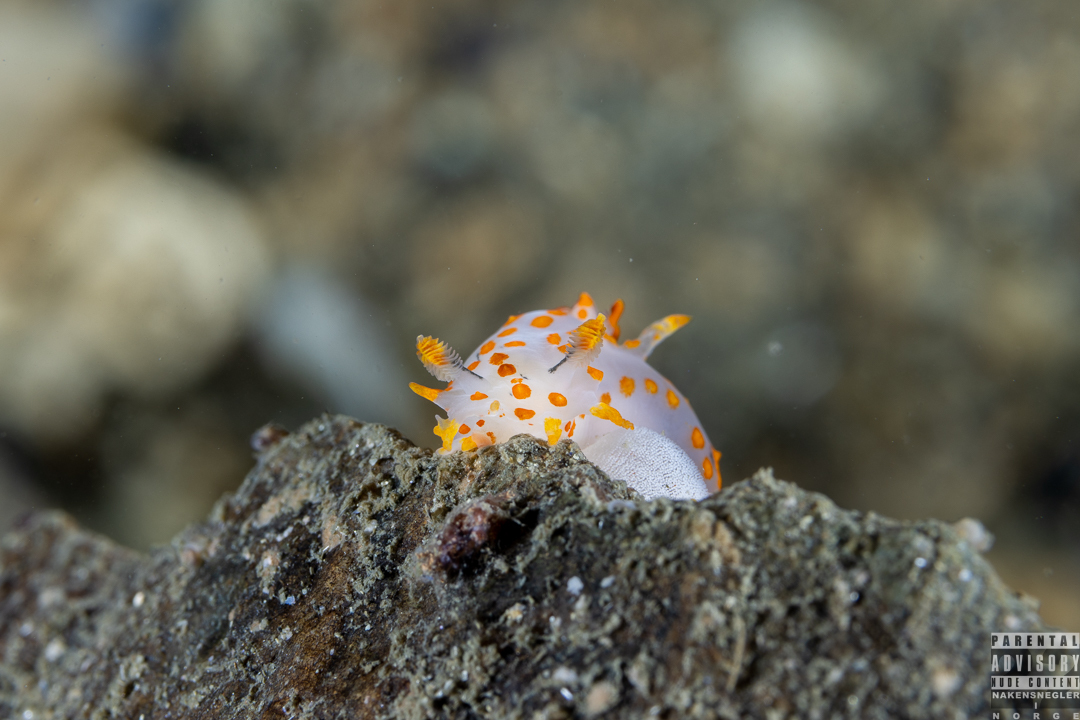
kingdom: Animalia
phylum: Mollusca
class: Gastropoda
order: Nudibranchia
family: Polyceridae
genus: Polycera
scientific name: Polycera quadrilineata
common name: Four-striped polycera
